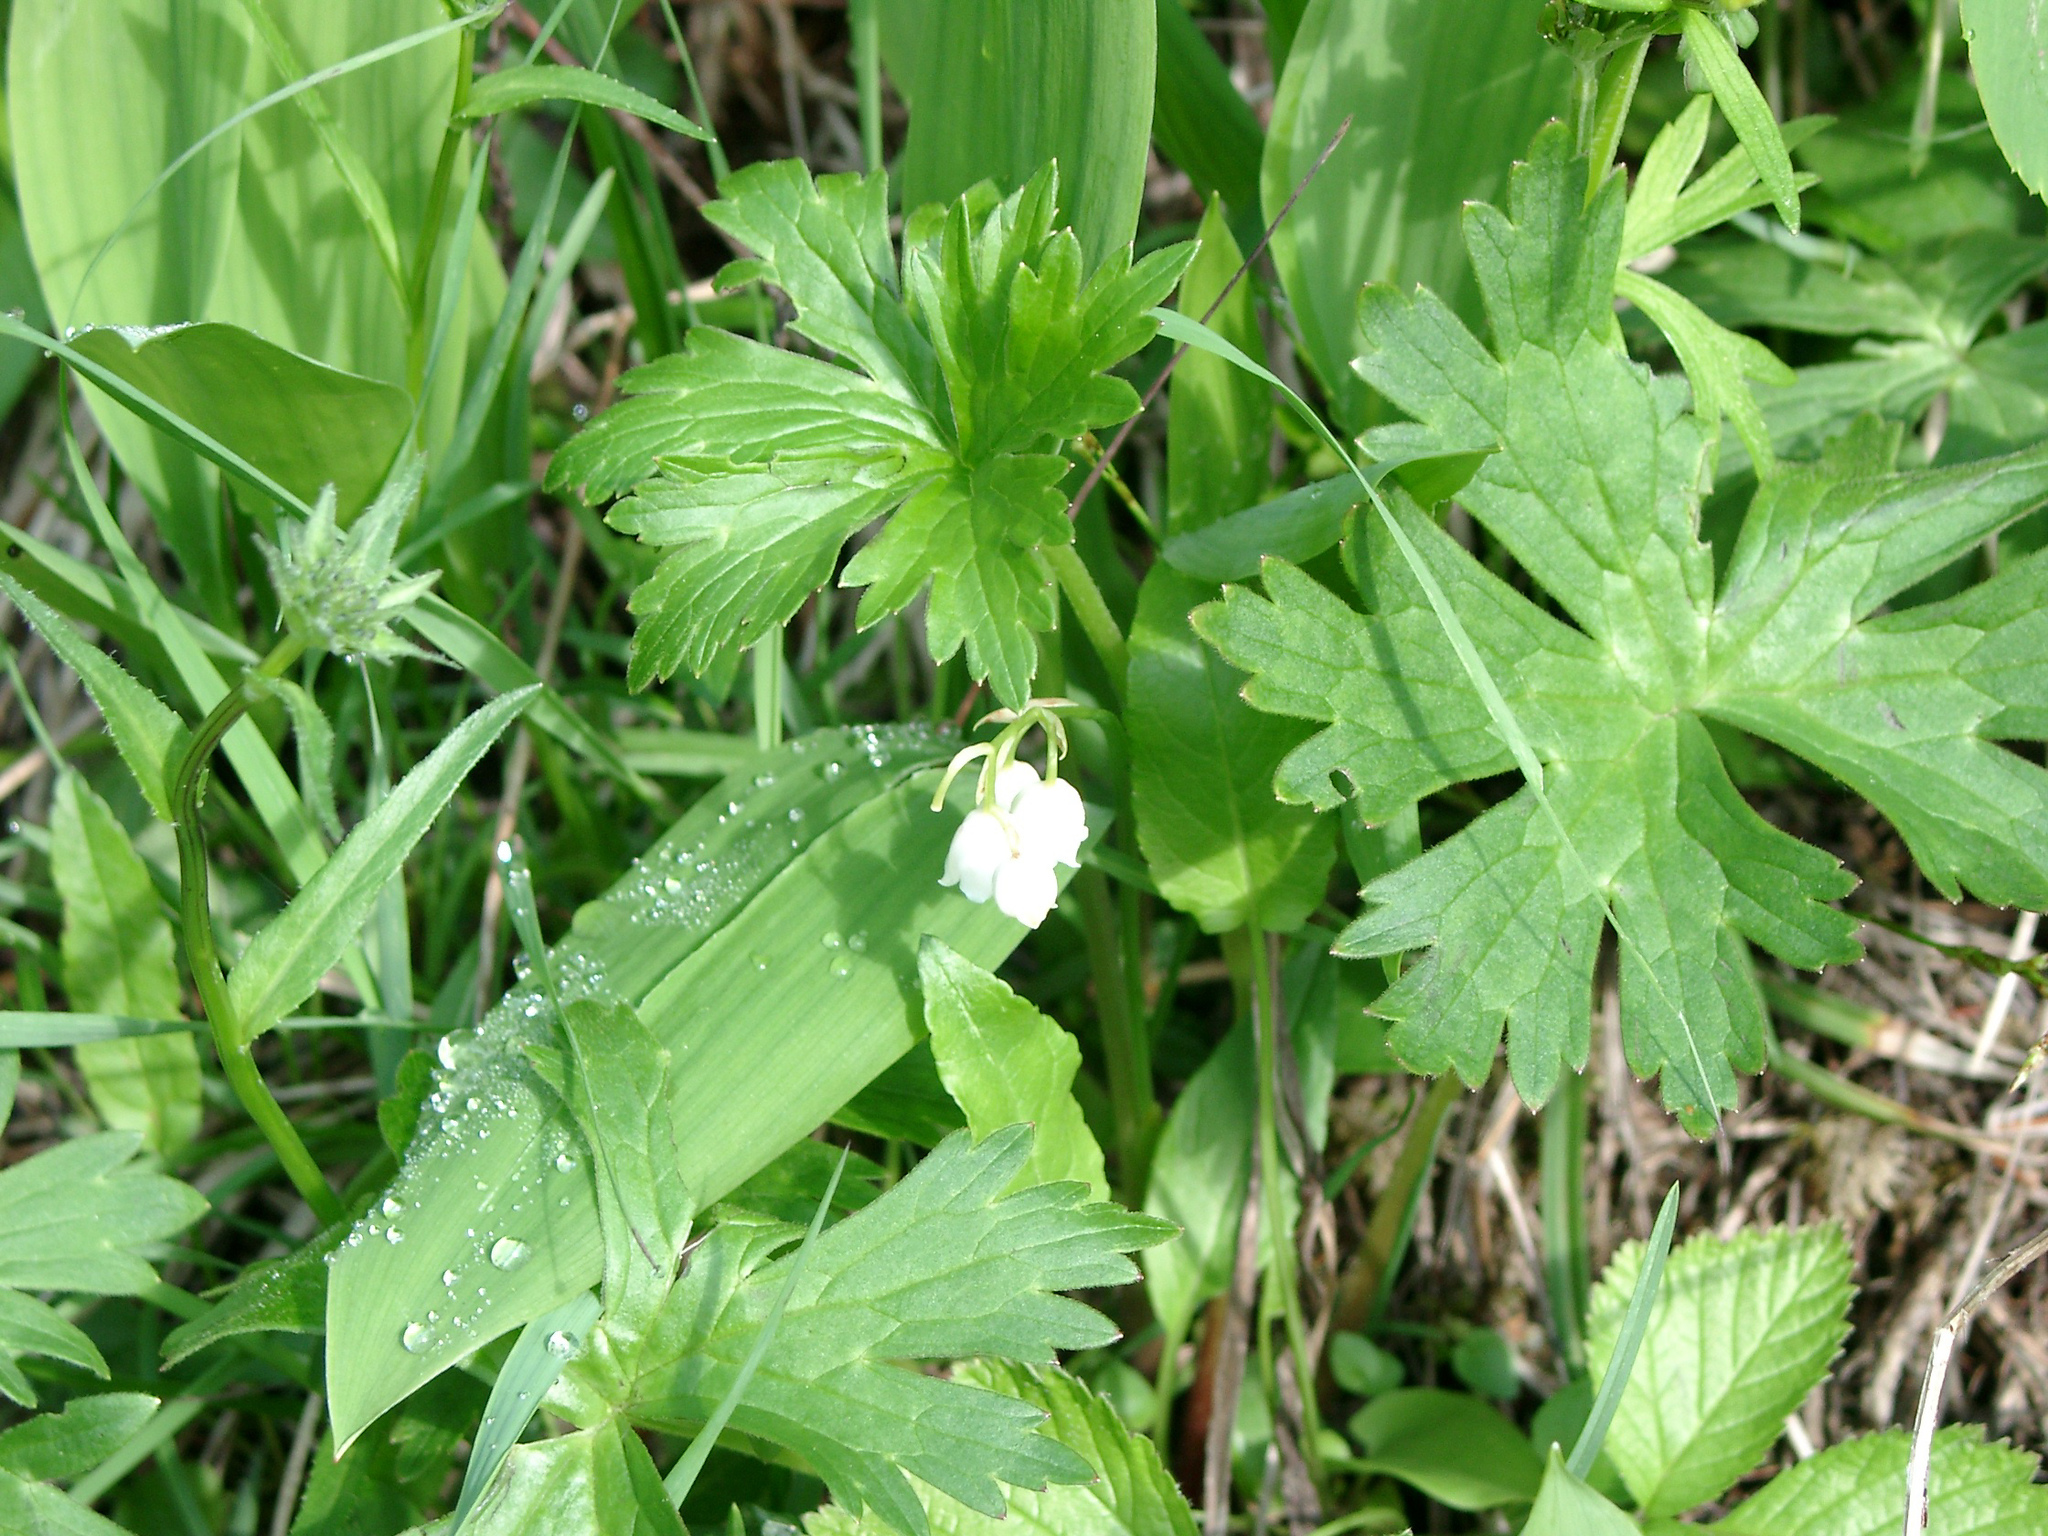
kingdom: Plantae
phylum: Tracheophyta
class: Liliopsida
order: Asparagales
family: Asparagaceae
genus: Convallaria
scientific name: Convallaria majalis
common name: Lily-of-the-valley
